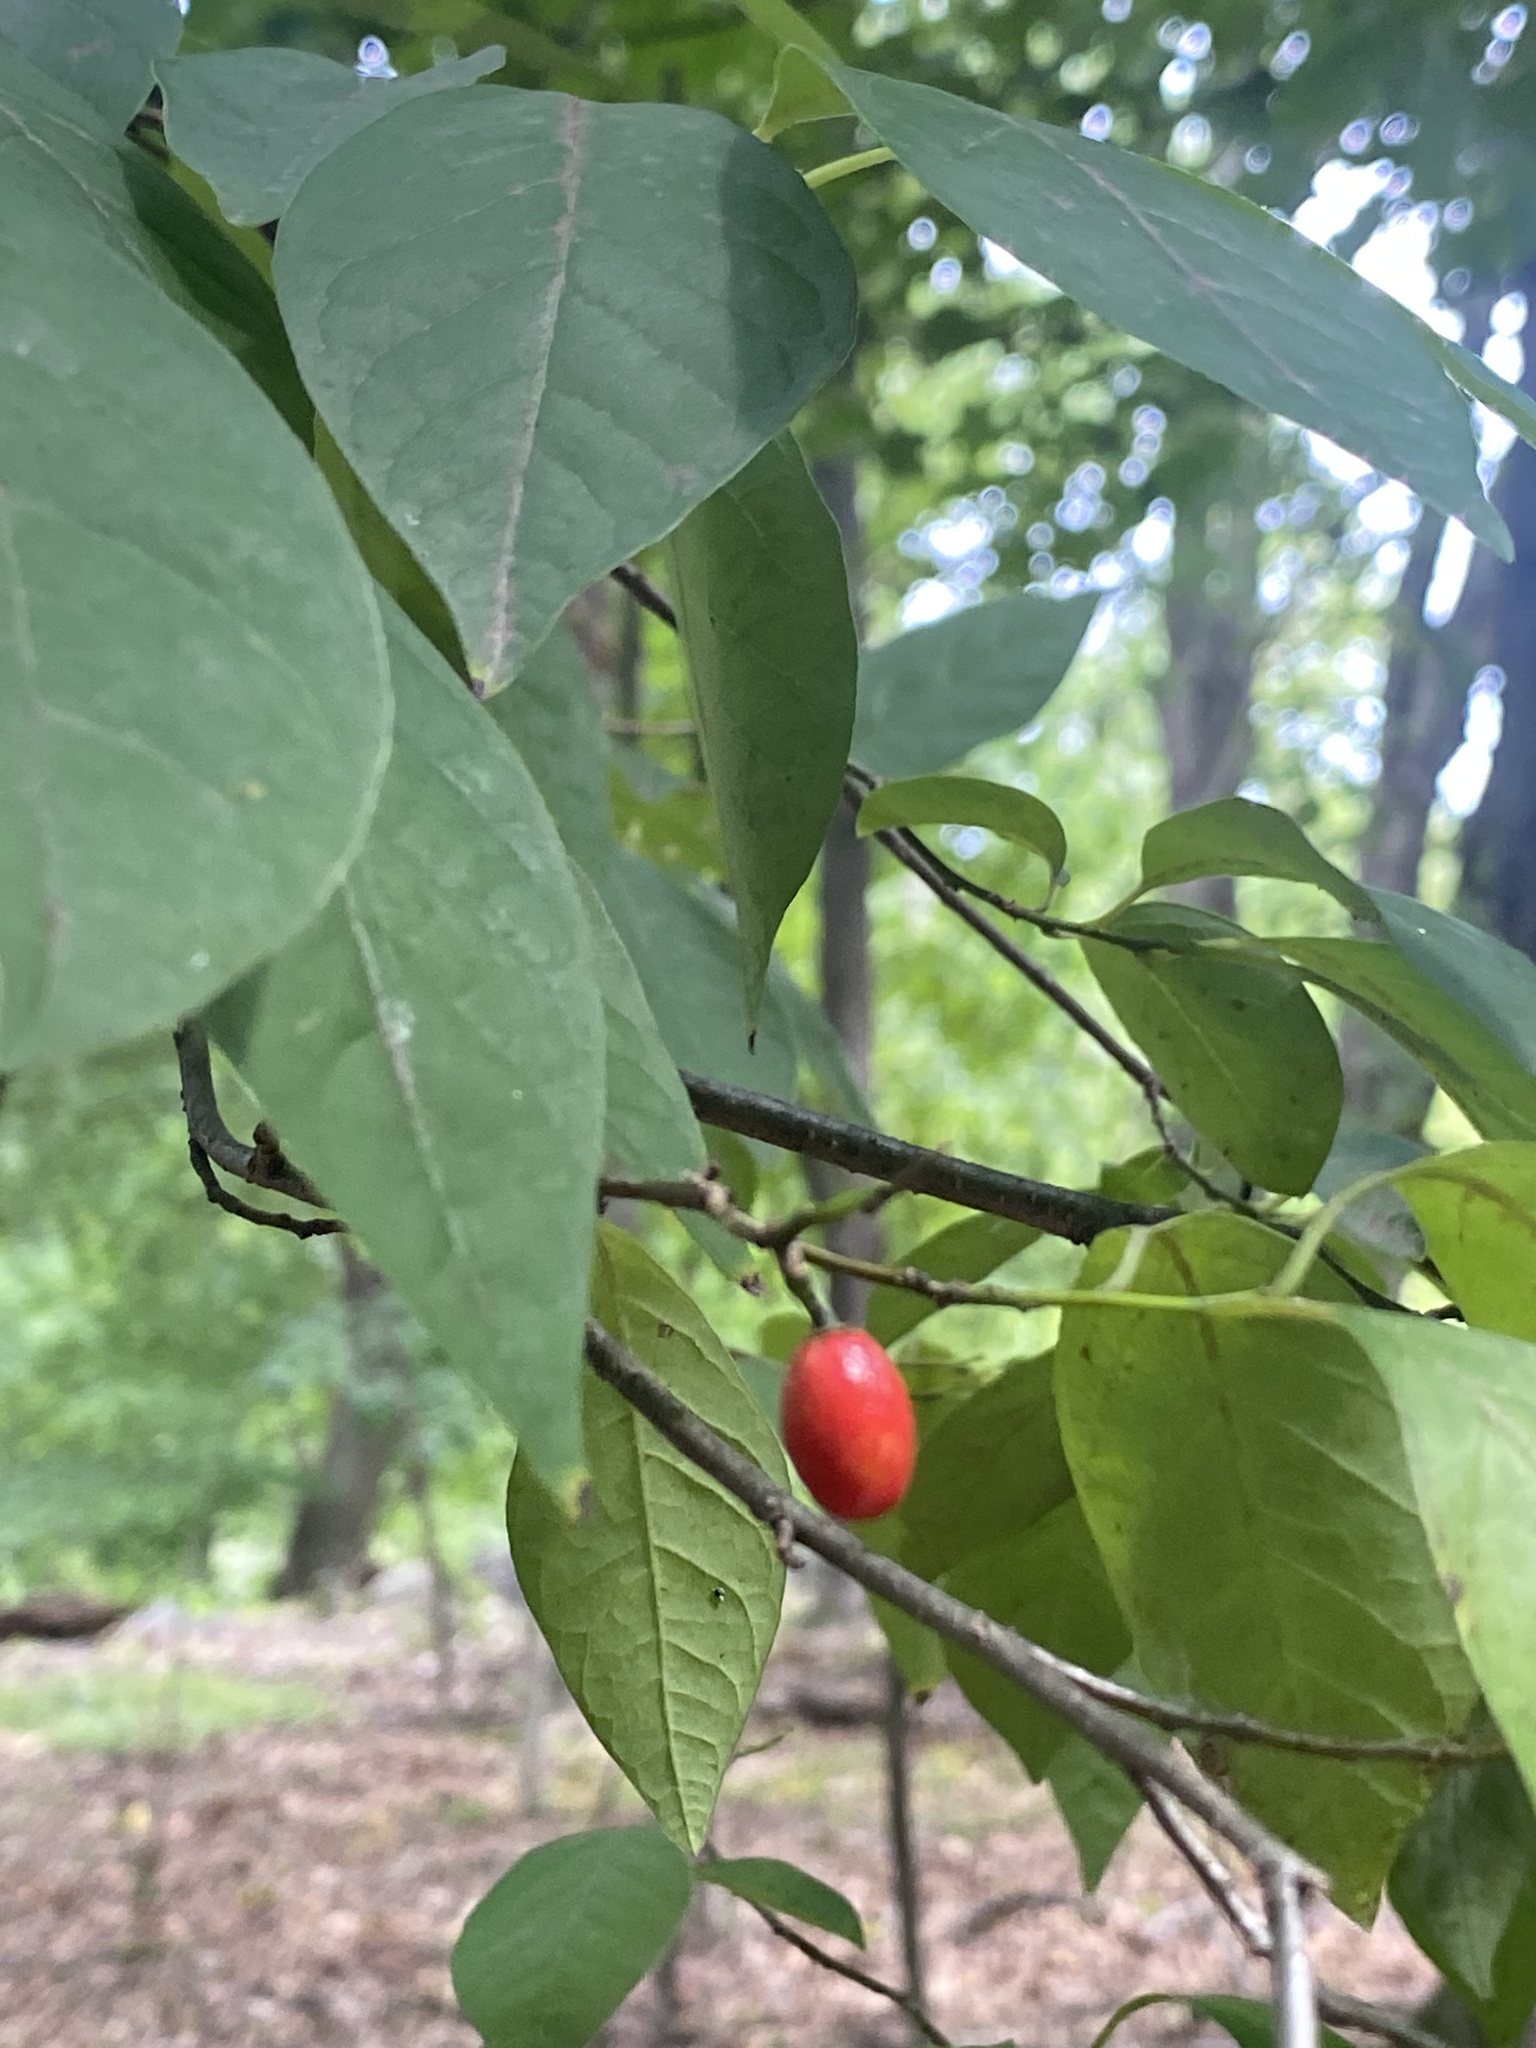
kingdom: Plantae
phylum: Tracheophyta
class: Magnoliopsida
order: Laurales
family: Lauraceae
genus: Lindera
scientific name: Lindera benzoin
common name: Spicebush
